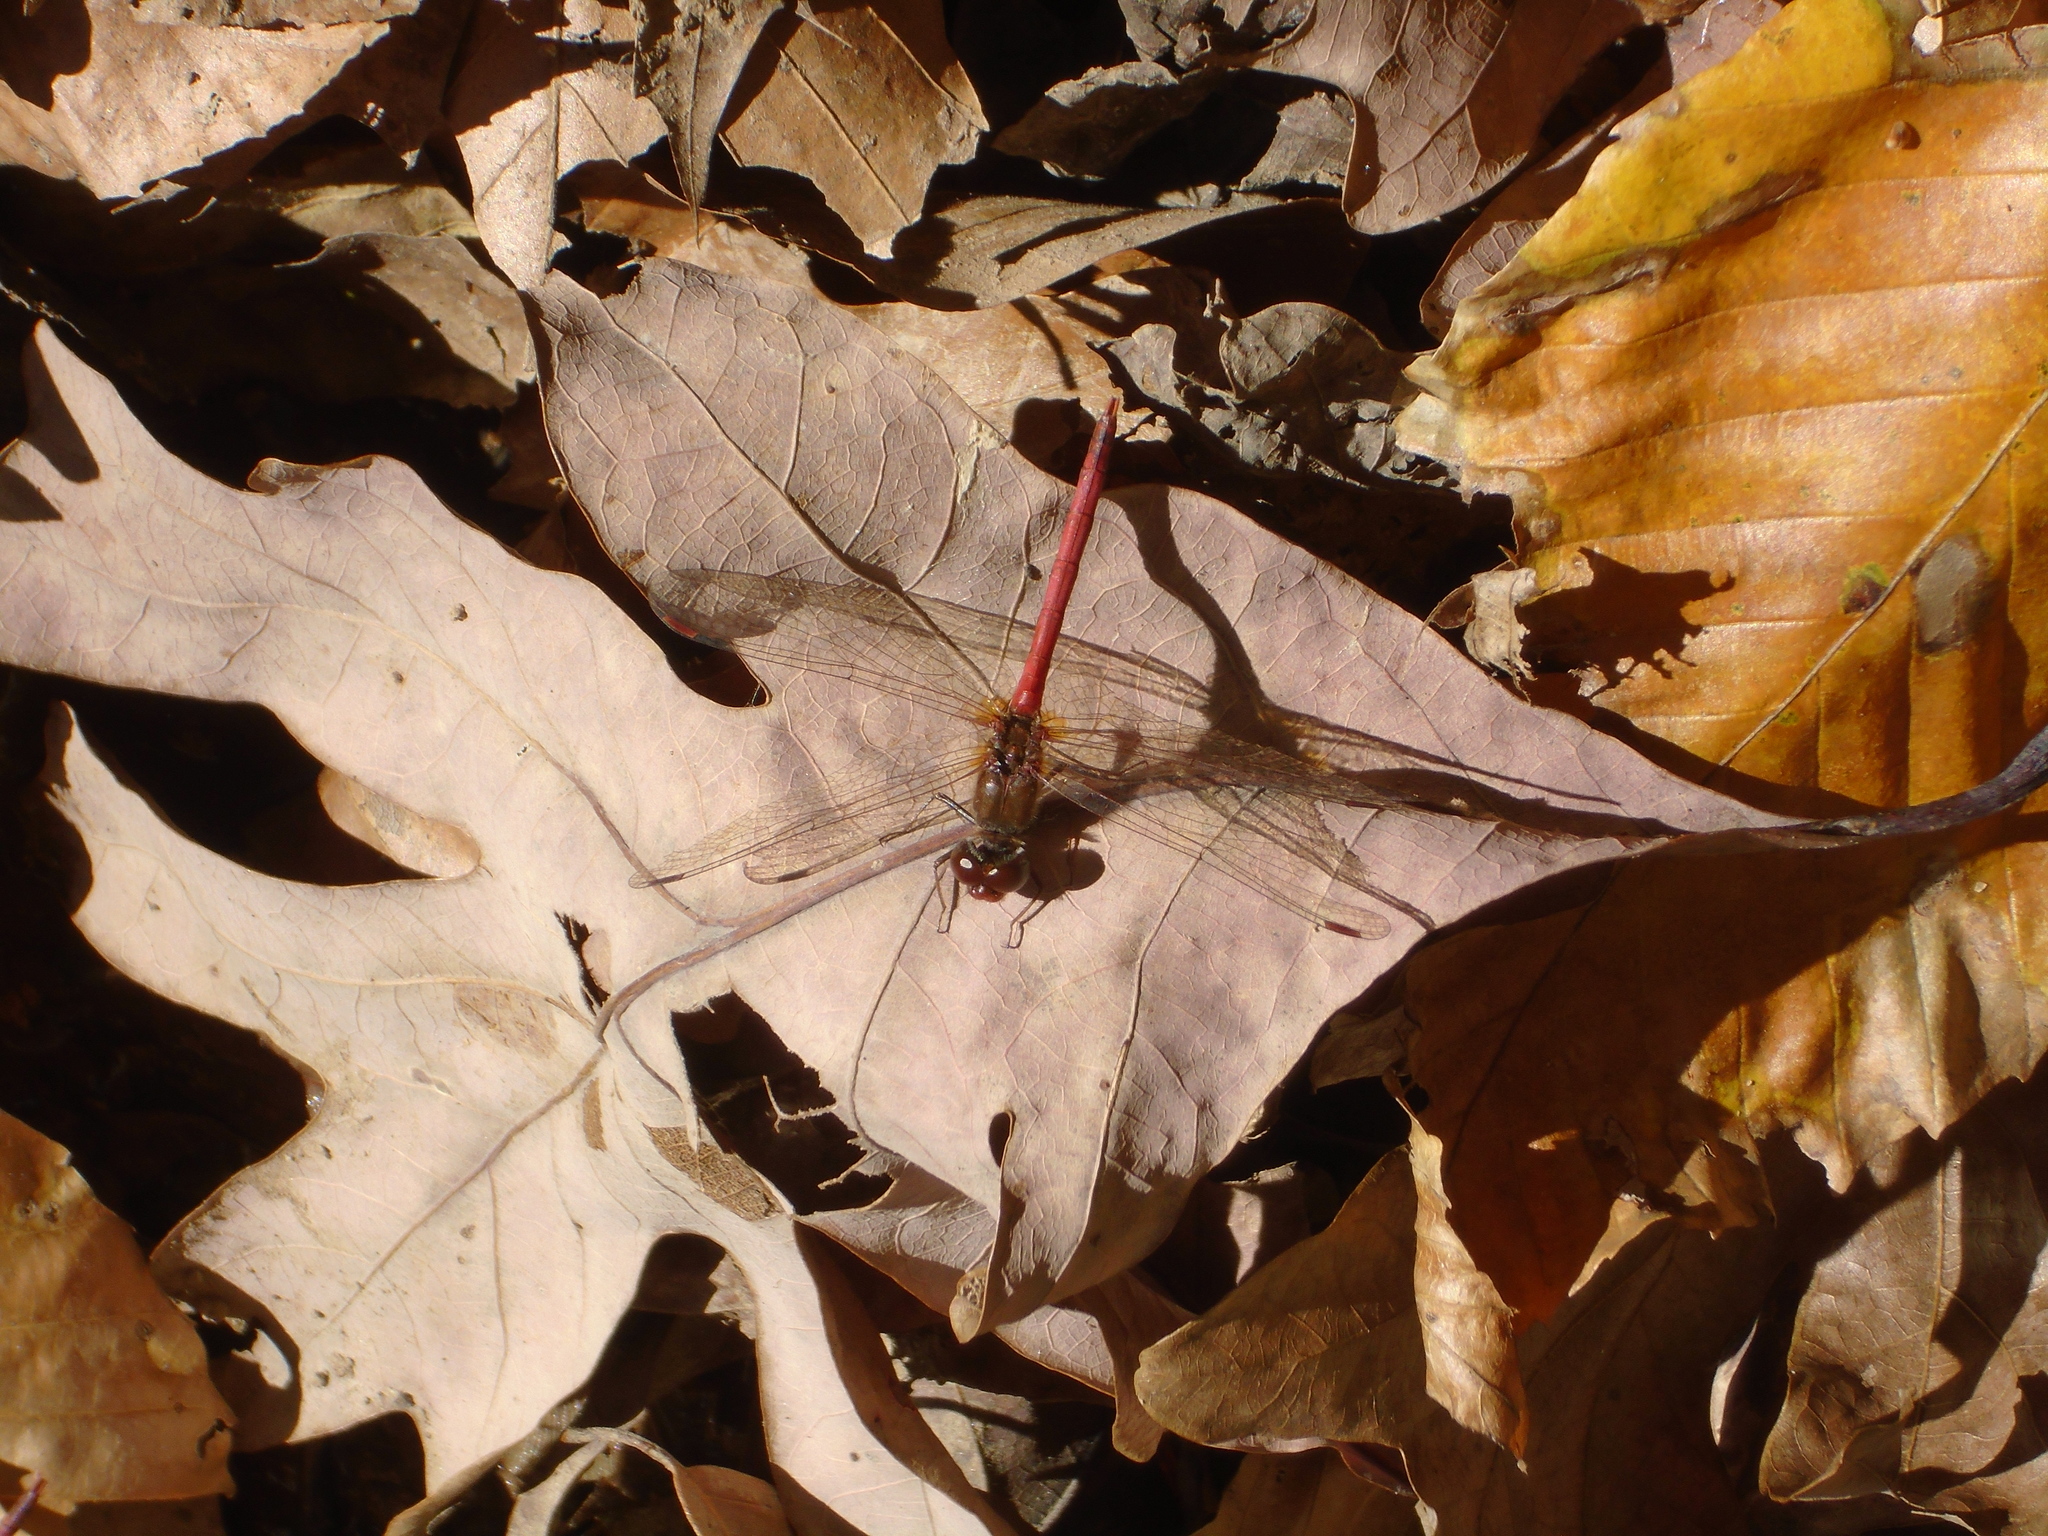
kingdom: Animalia
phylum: Arthropoda
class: Insecta
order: Odonata
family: Libellulidae
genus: Sympetrum
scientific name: Sympetrum vicinum
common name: Autumn meadowhawk
